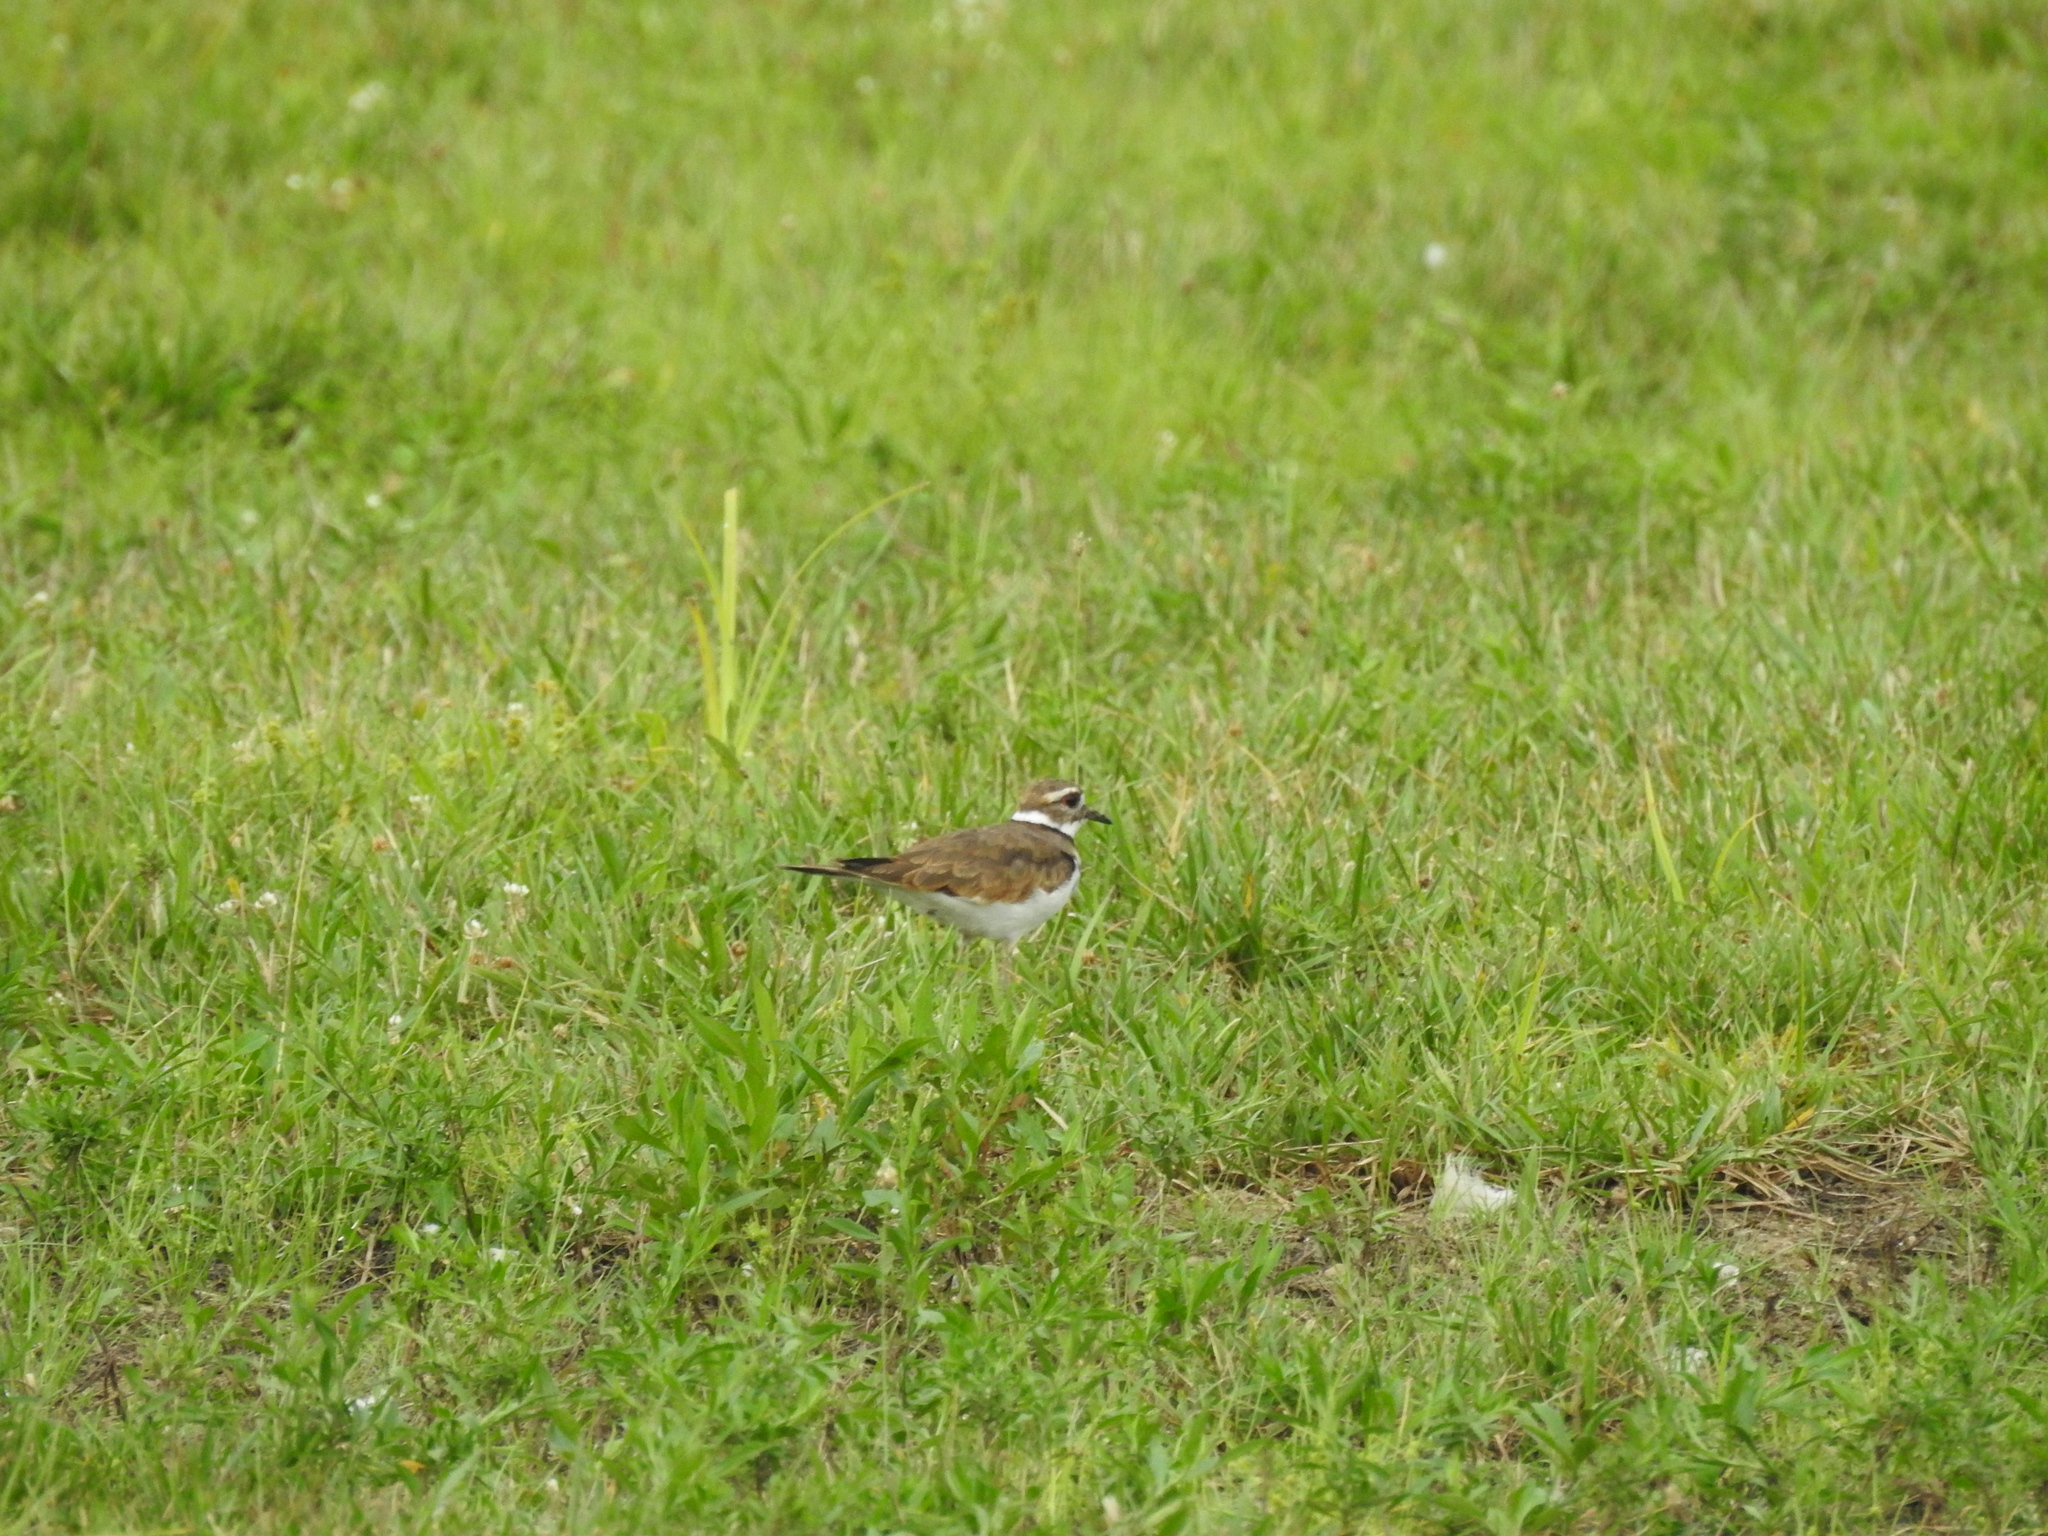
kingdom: Animalia
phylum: Chordata
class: Aves
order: Charadriiformes
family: Charadriidae
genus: Charadrius
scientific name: Charadrius vociferus
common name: Killdeer
